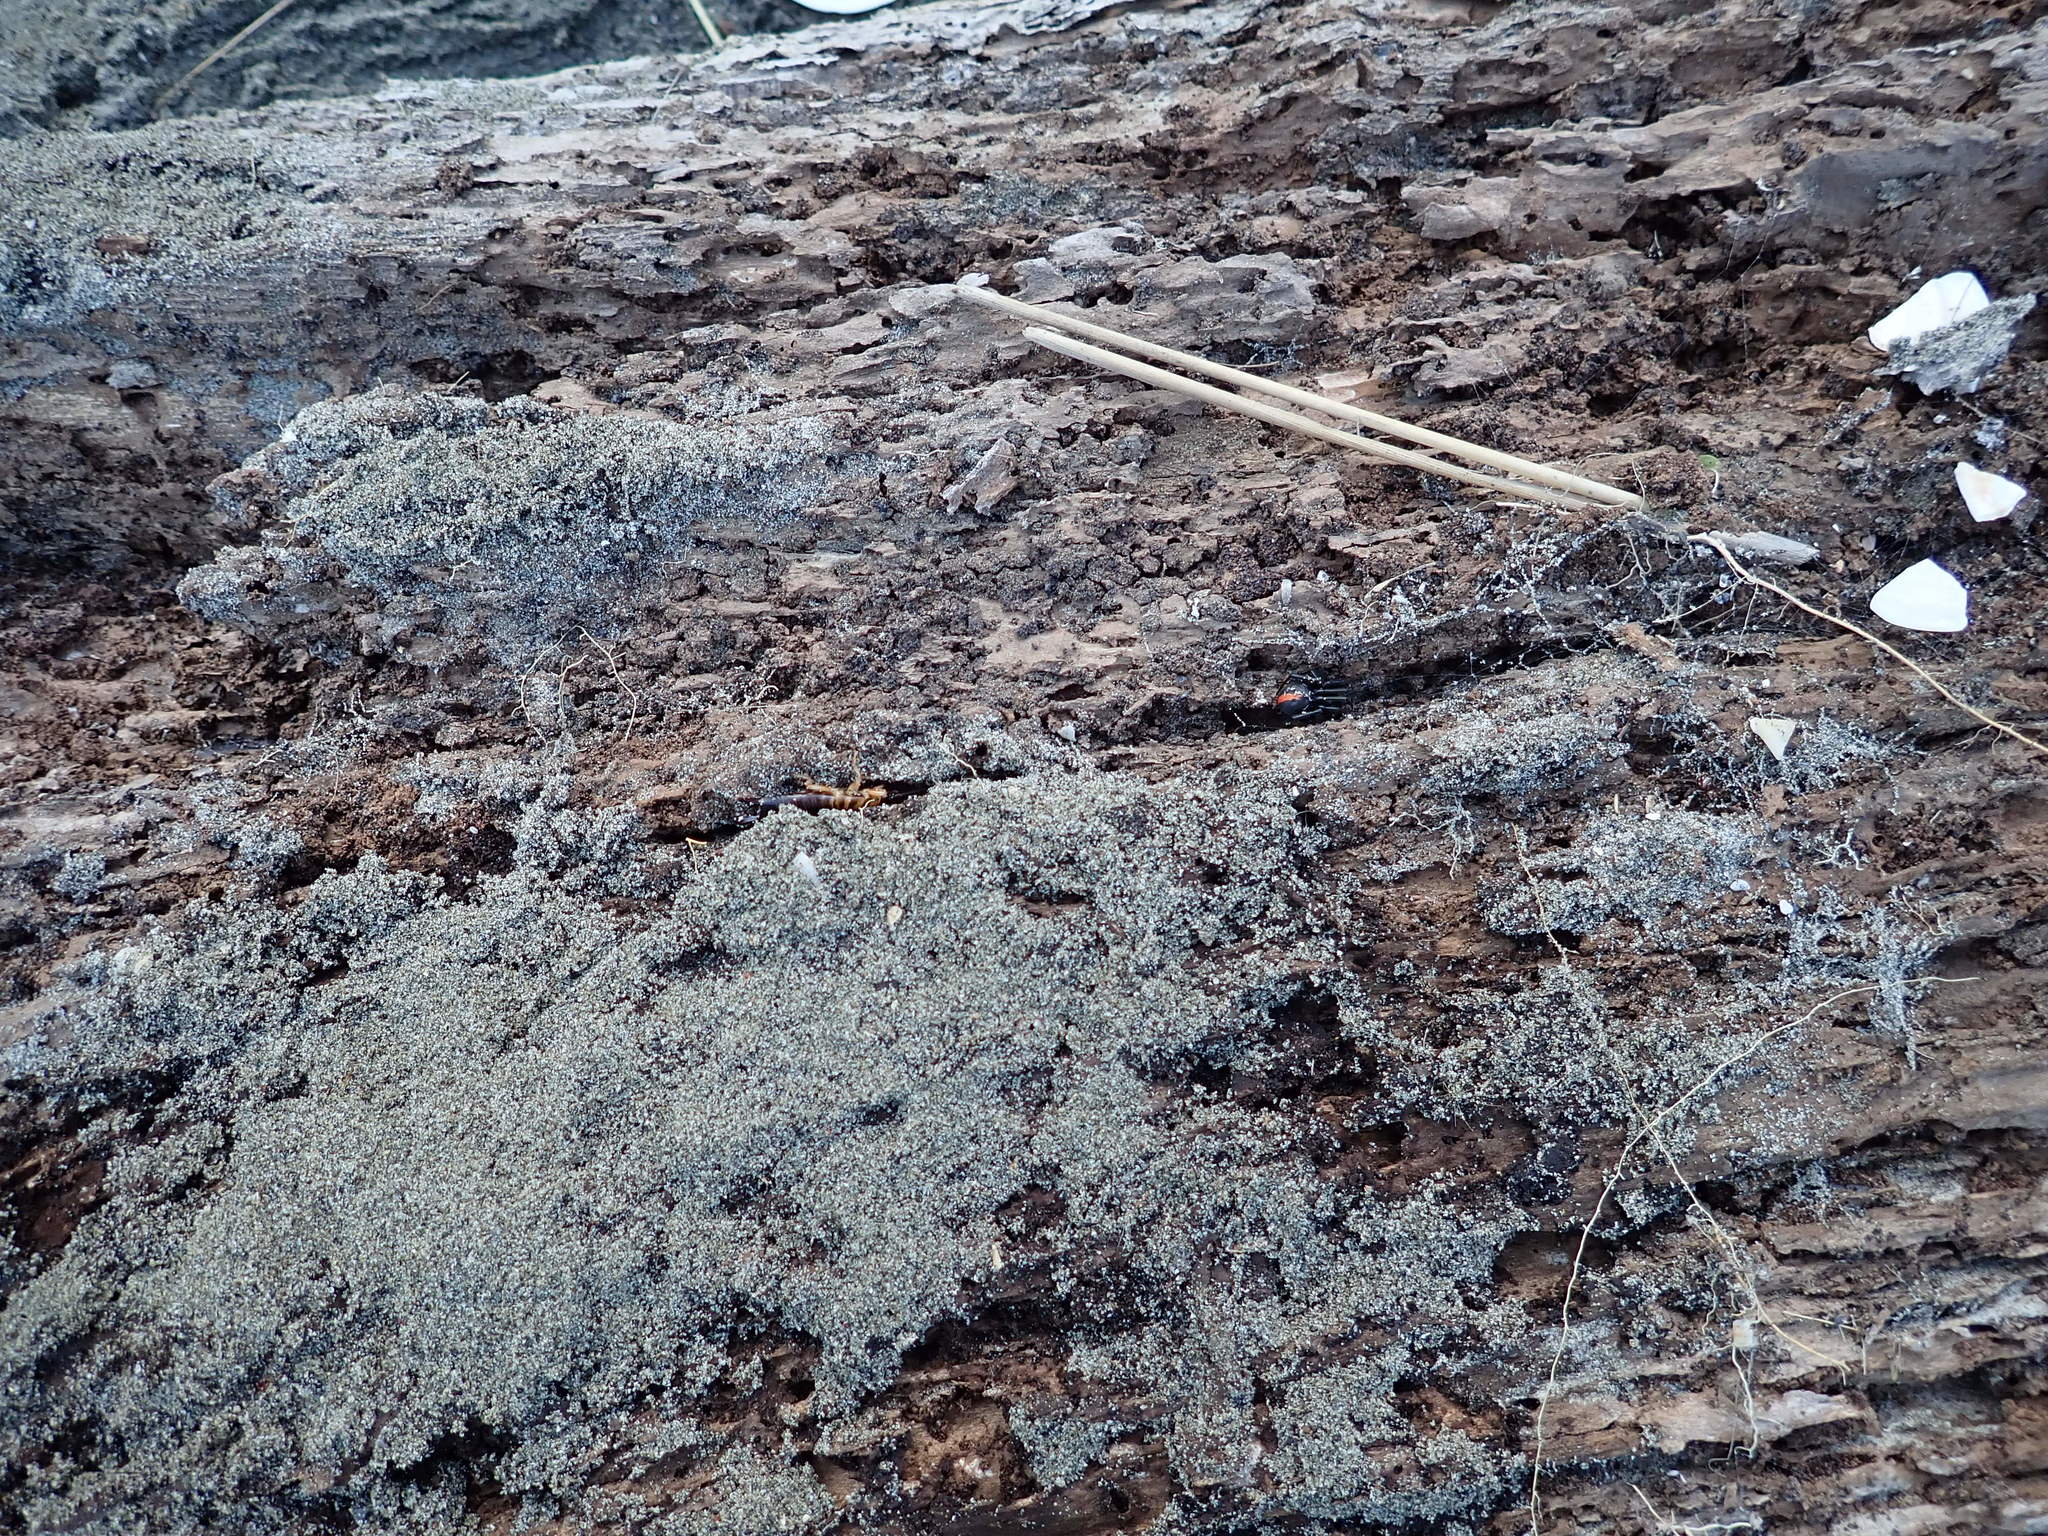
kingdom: Animalia
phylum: Arthropoda
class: Insecta
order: Dermaptera
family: Anisolabididae
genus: Anisolabis
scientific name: Anisolabis littorea
